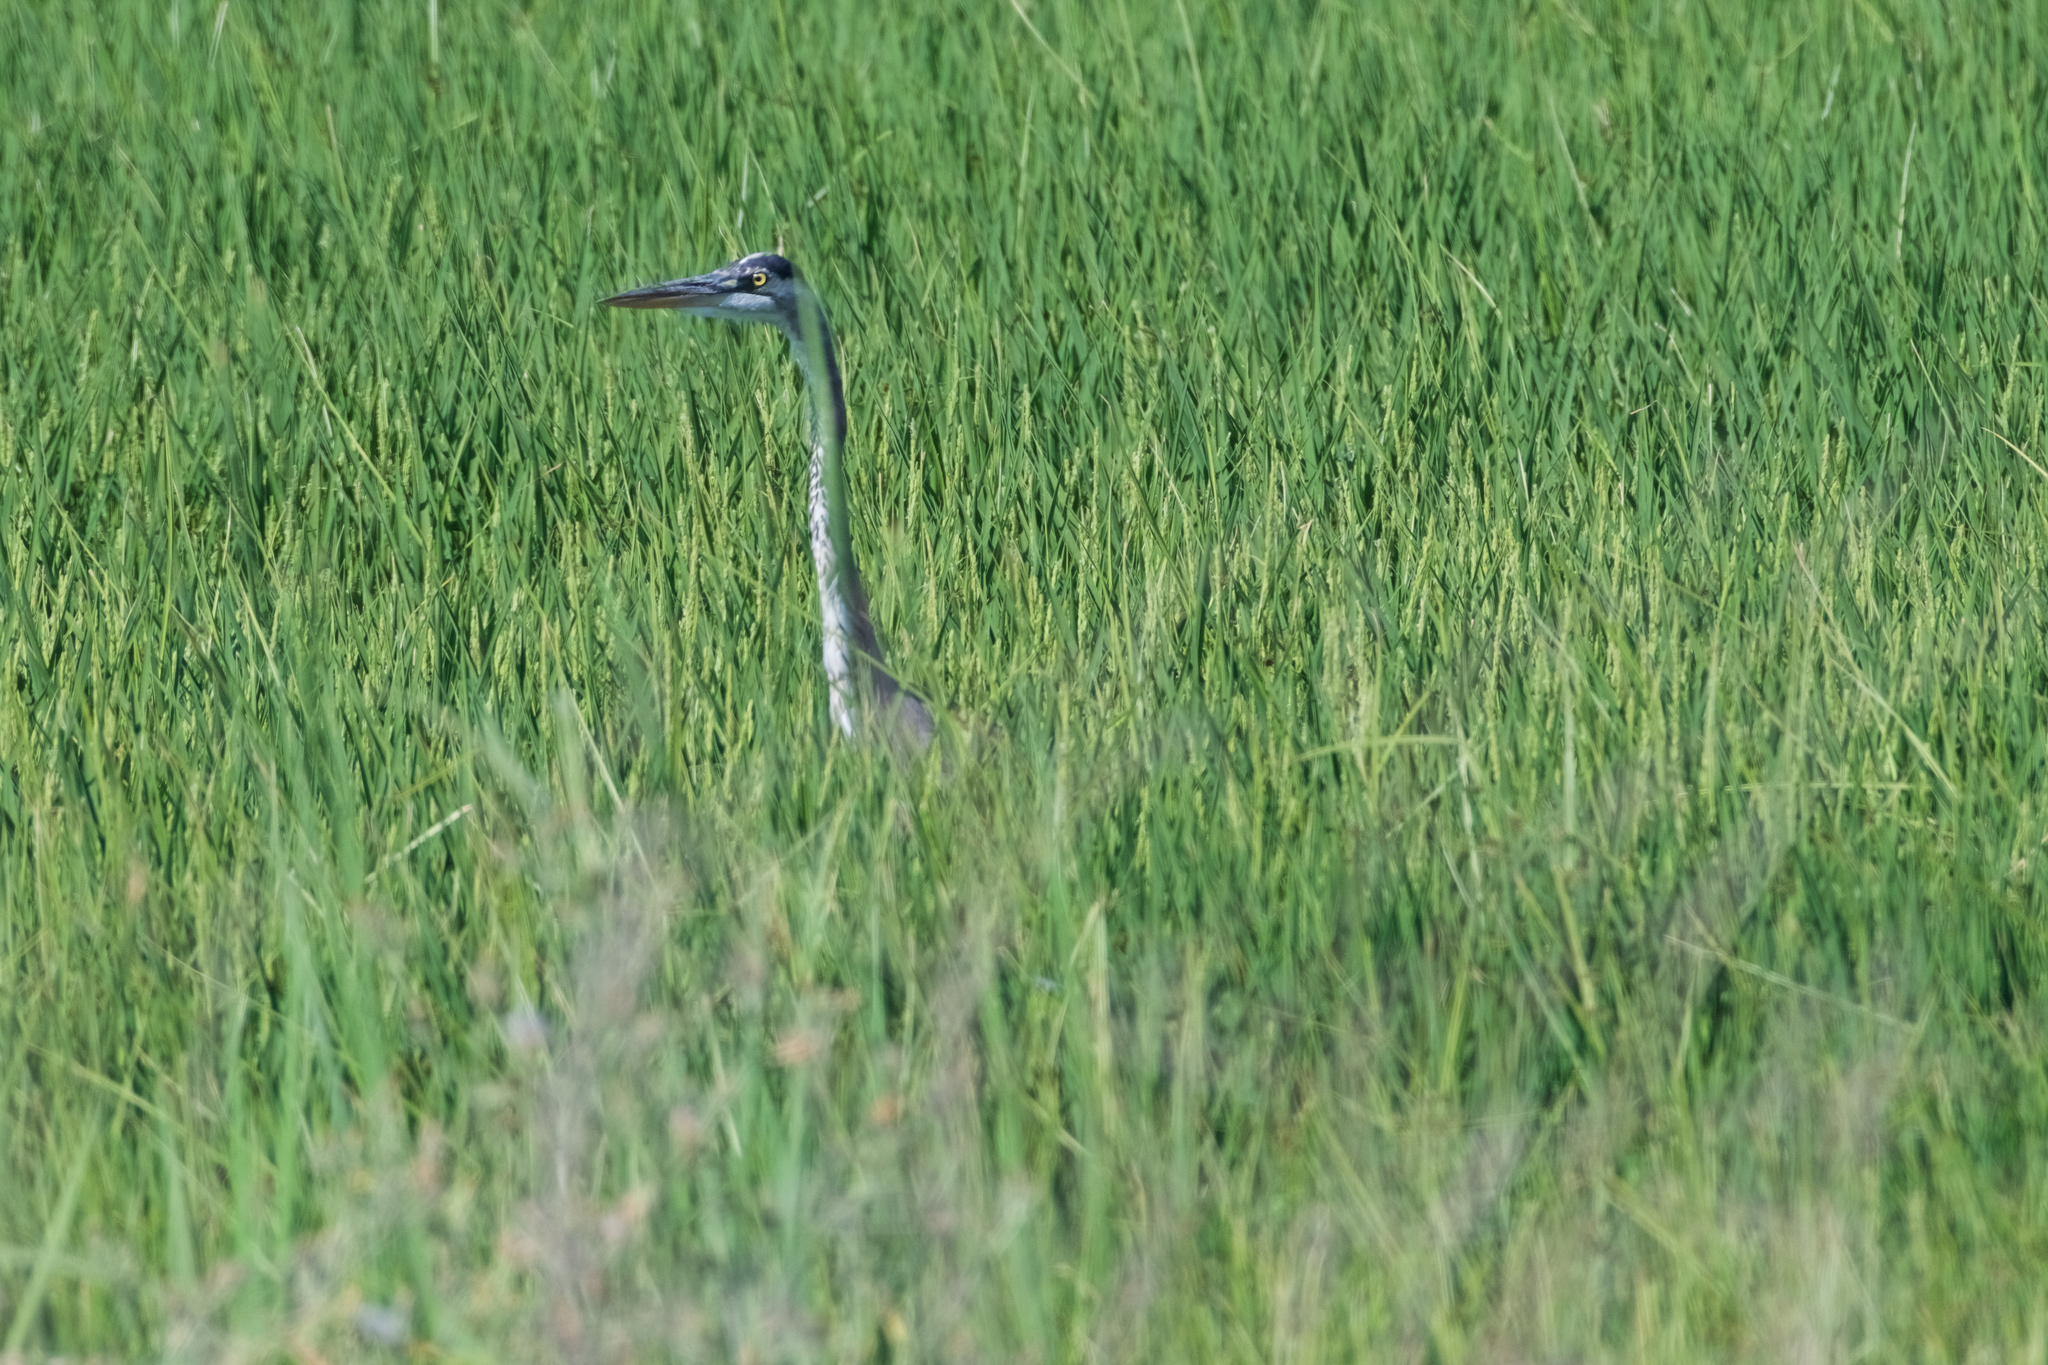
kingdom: Animalia
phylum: Chordata
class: Aves
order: Pelecaniformes
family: Ardeidae
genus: Ardea
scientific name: Ardea herodias
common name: Great blue heron
